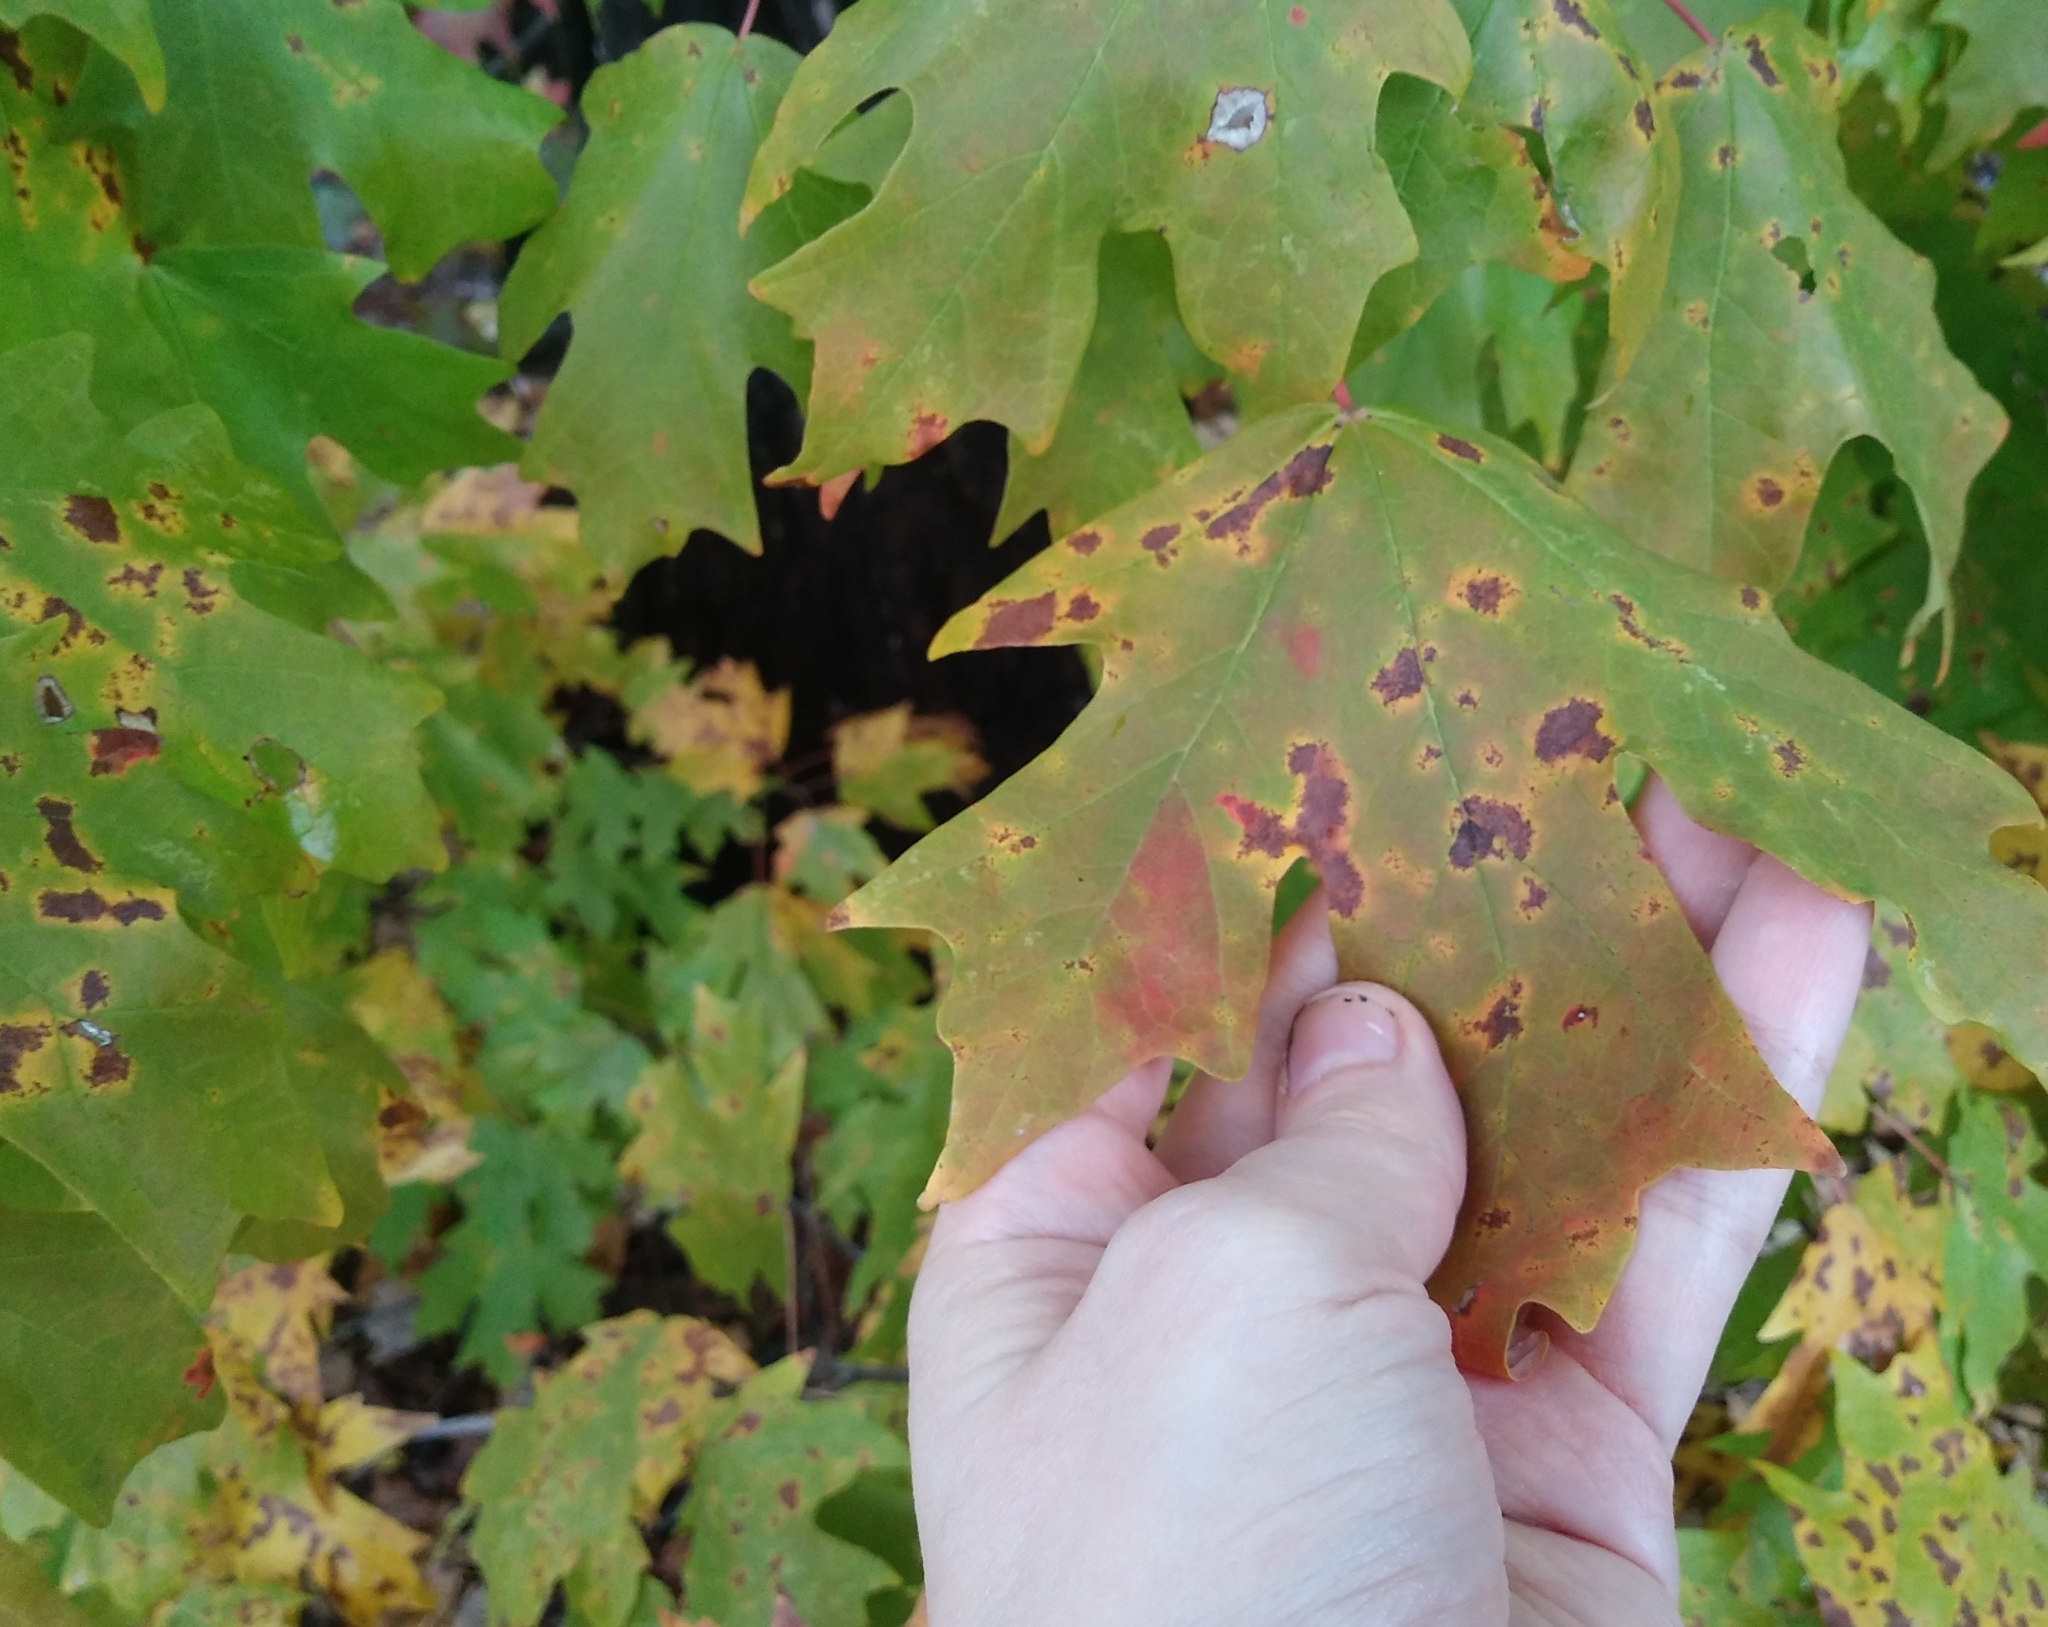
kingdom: Plantae
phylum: Tracheophyta
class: Magnoliopsida
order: Sapindales
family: Sapindaceae
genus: Acer
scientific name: Acer floridanum
